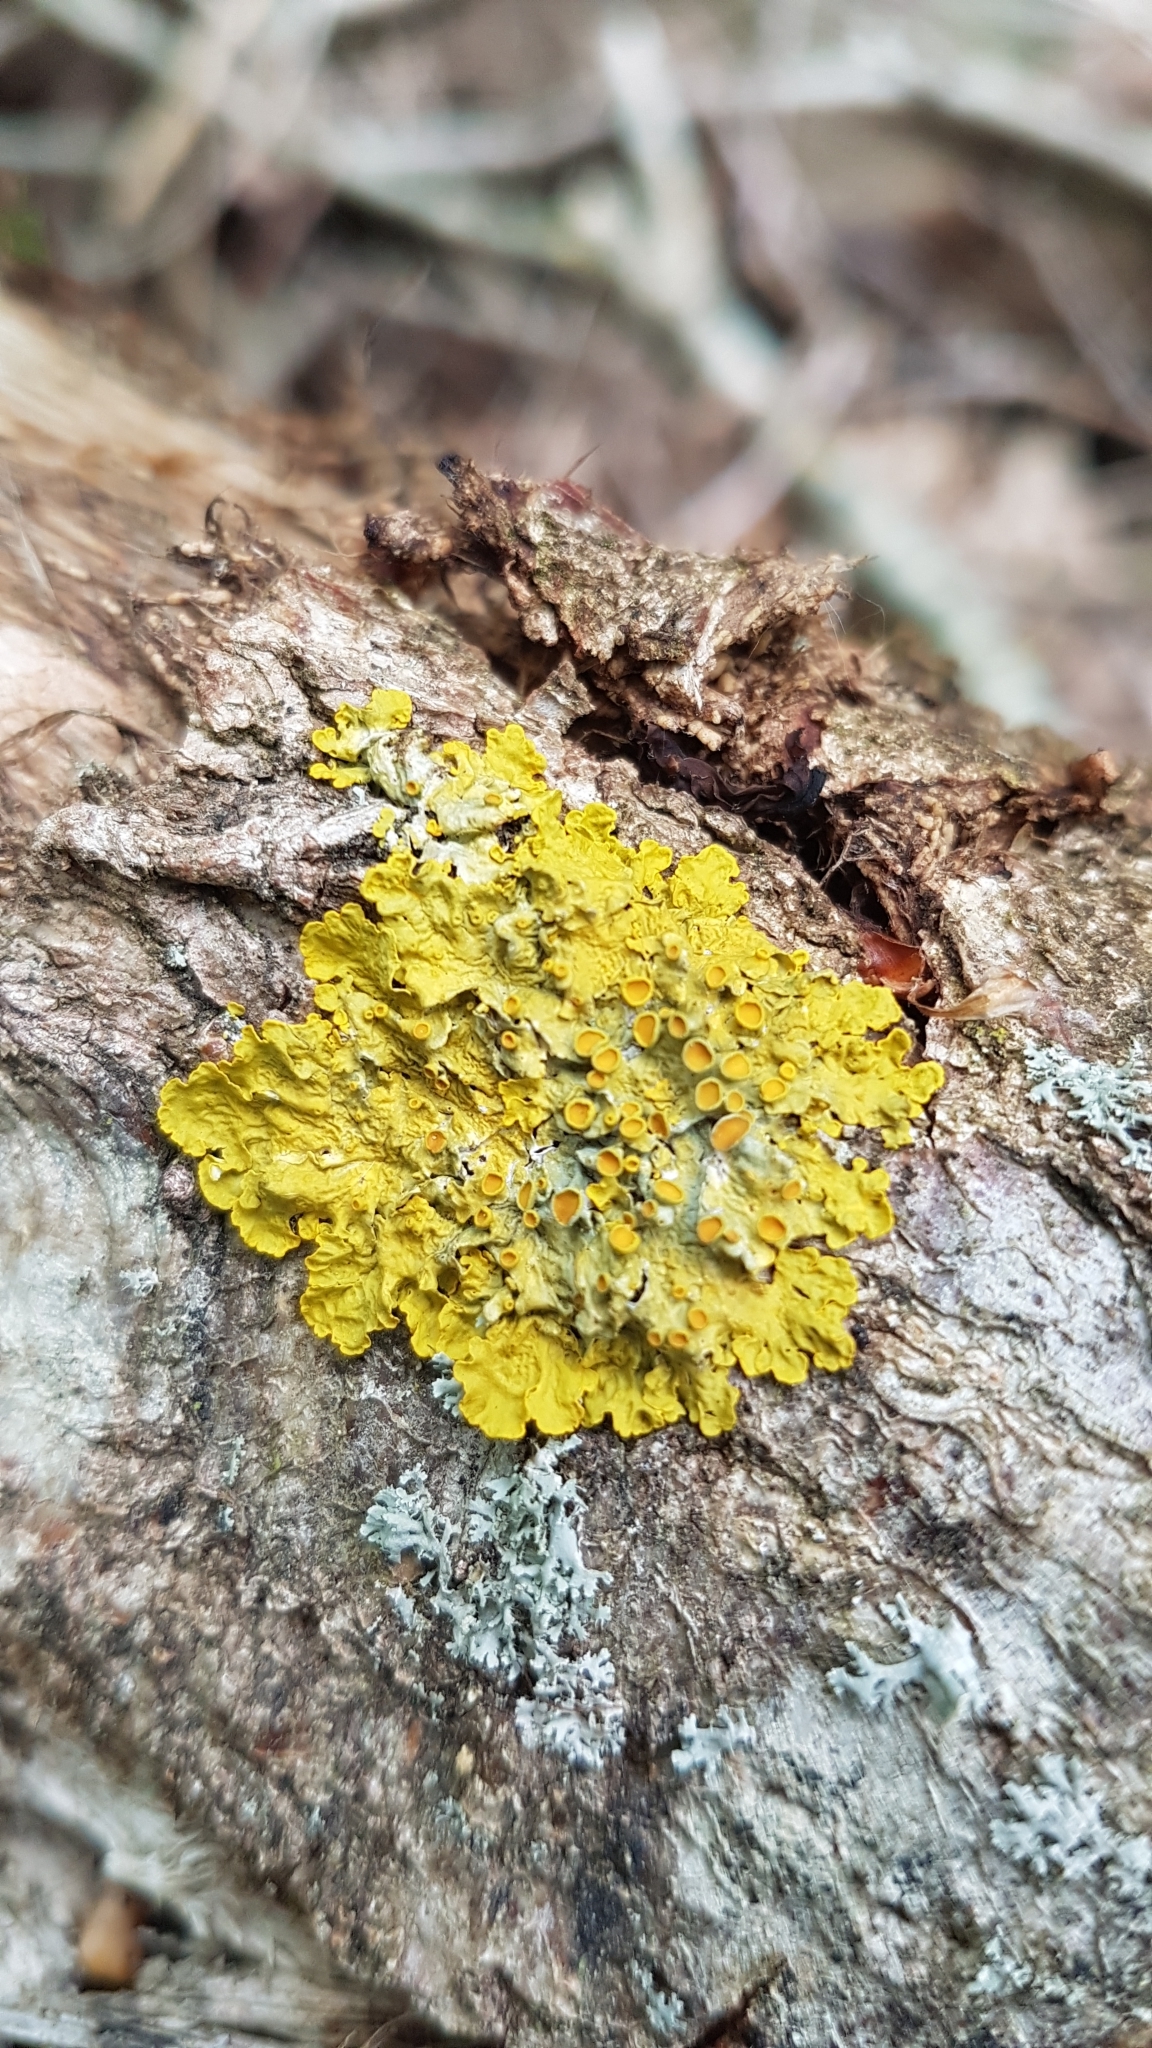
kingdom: Fungi
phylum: Ascomycota
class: Lecanoromycetes
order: Teloschistales
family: Teloschistaceae
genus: Xanthoria
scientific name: Xanthoria parietina
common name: Common orange lichen
